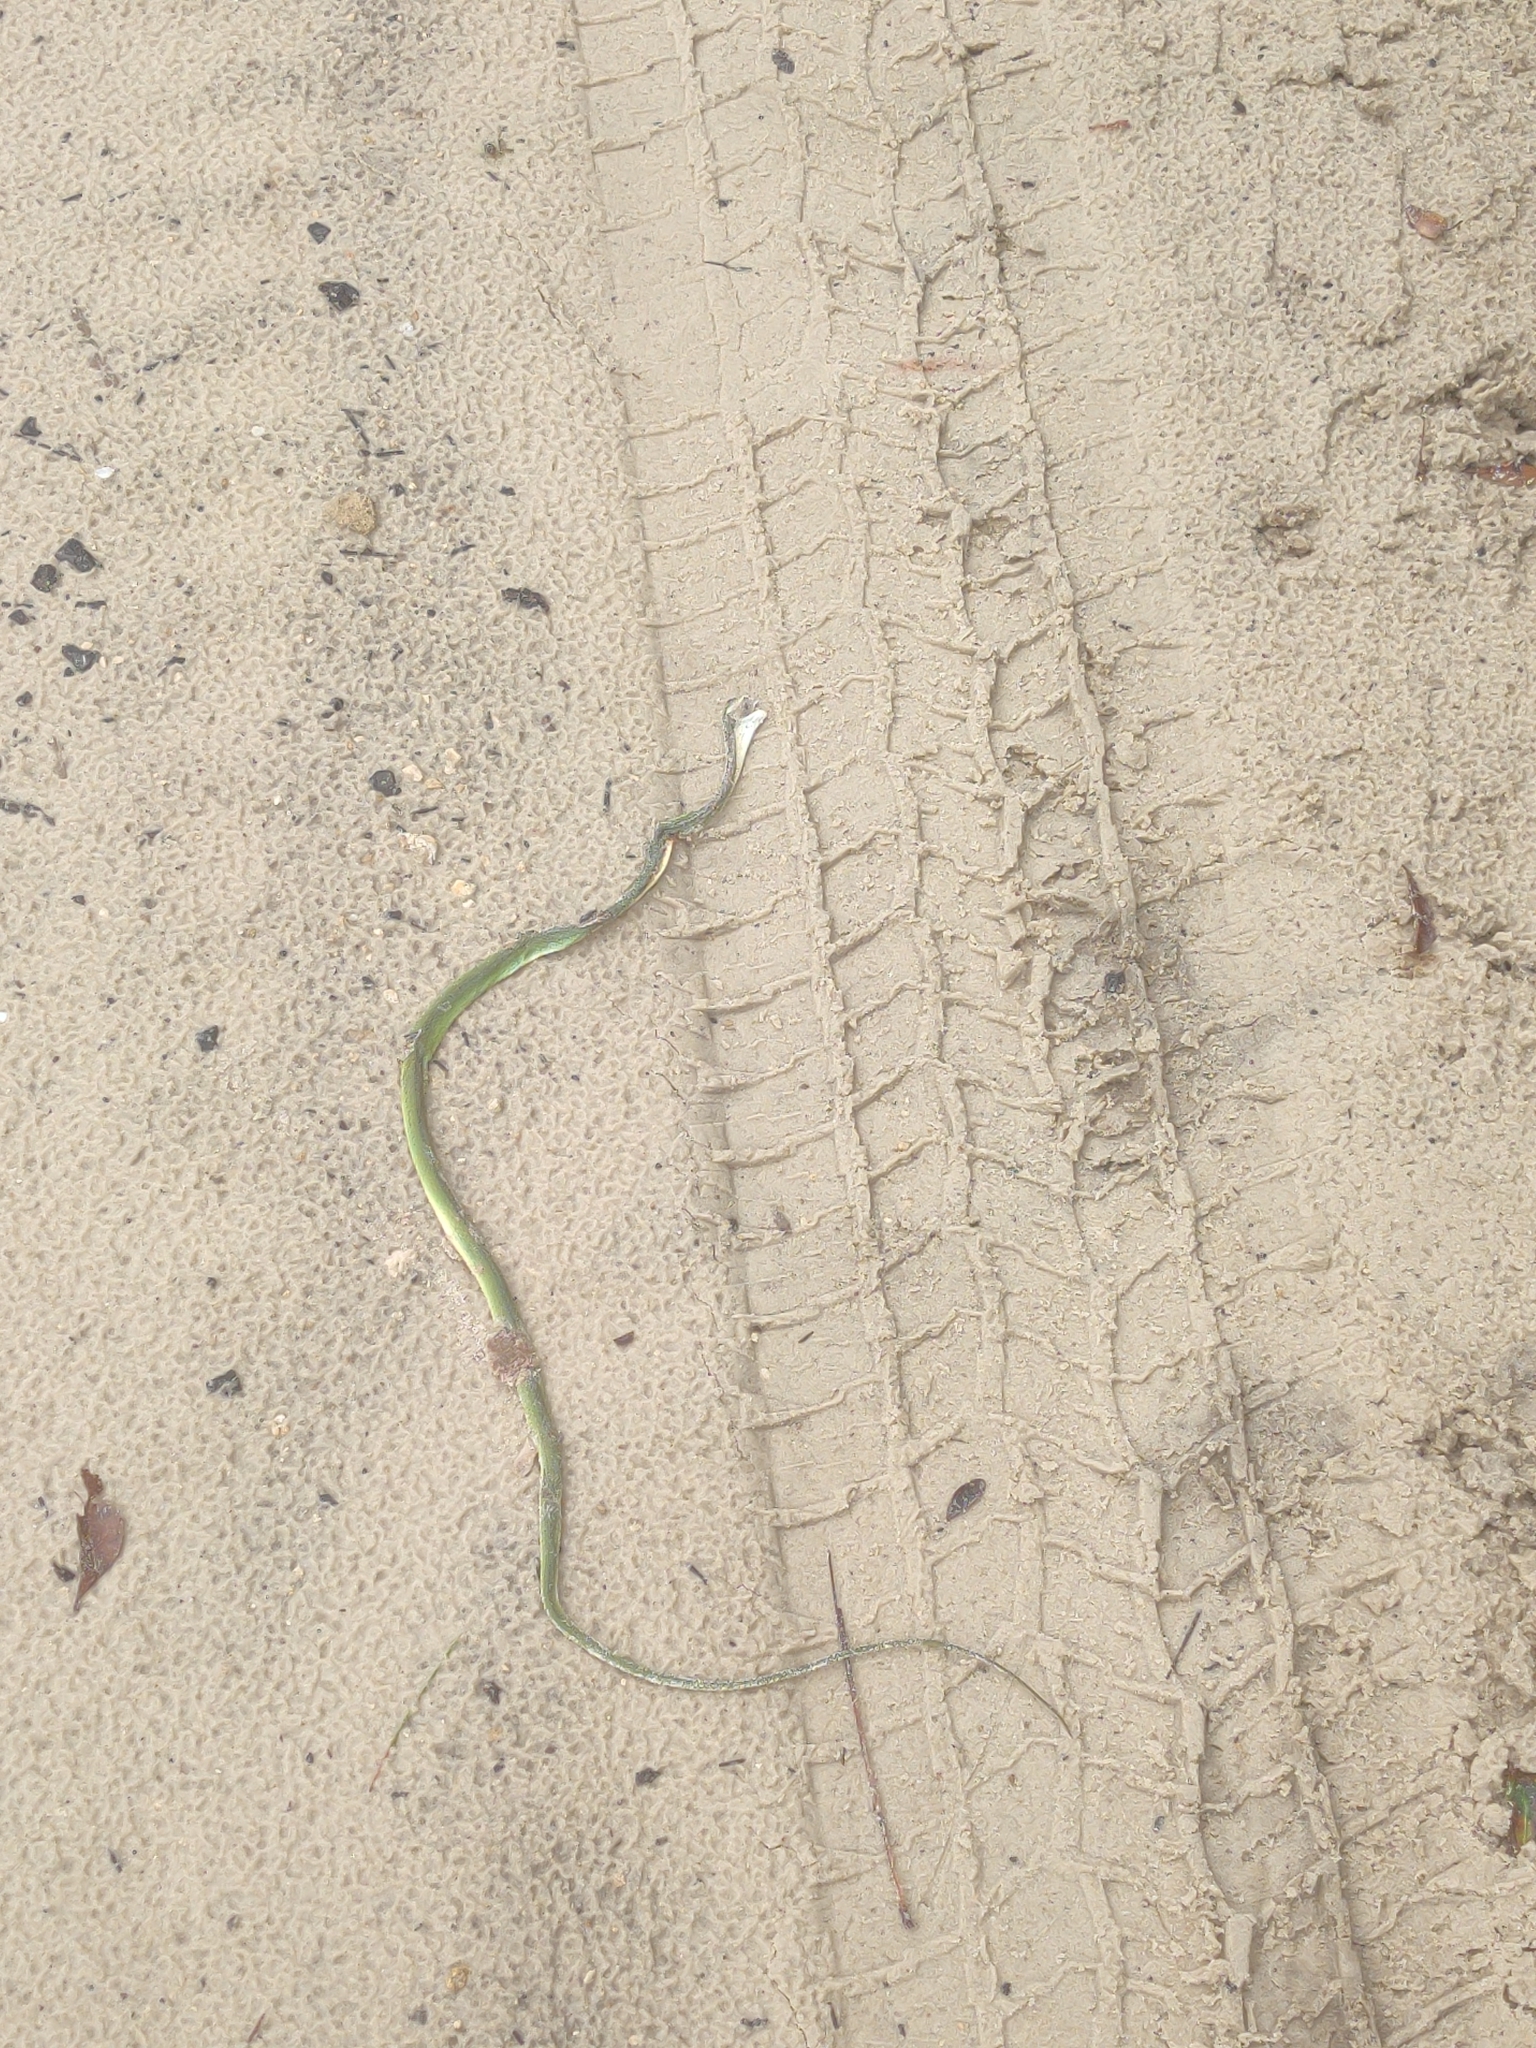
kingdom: Animalia
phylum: Chordata
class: Squamata
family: Colubridae
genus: Opheodrys
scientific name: Opheodrys aestivus
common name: Rough greensnake
